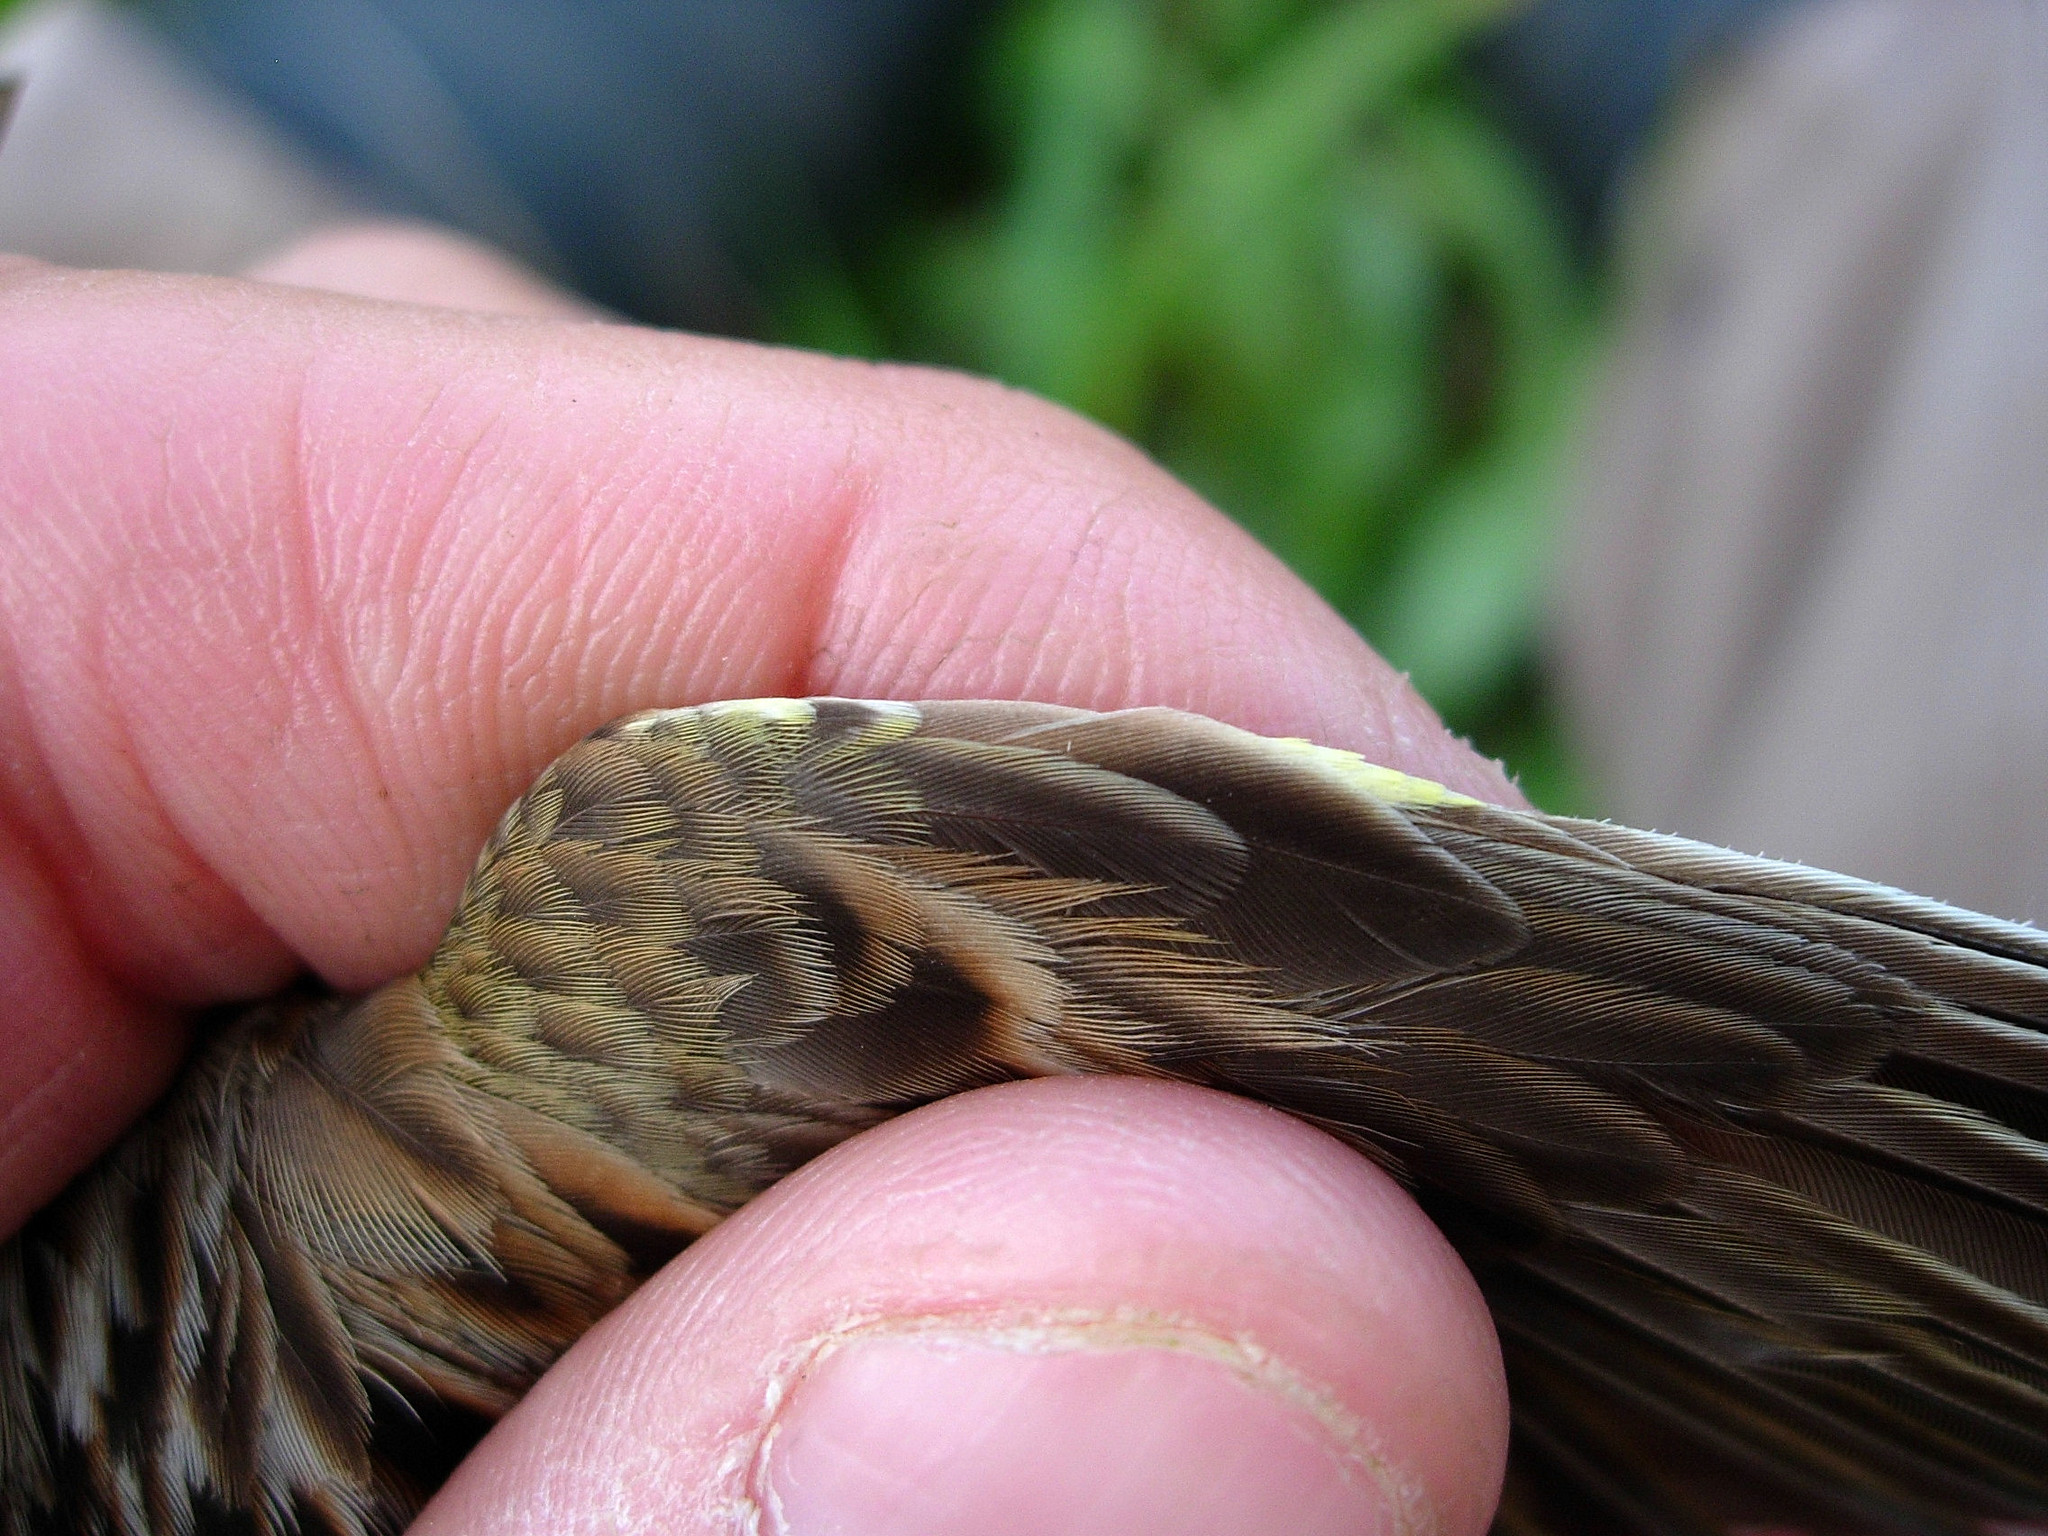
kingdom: Animalia
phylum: Chordata
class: Aves
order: Passeriformes
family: Passerellidae
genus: Passerculus
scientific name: Passerculus sandwichensis
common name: Savannah sparrow
